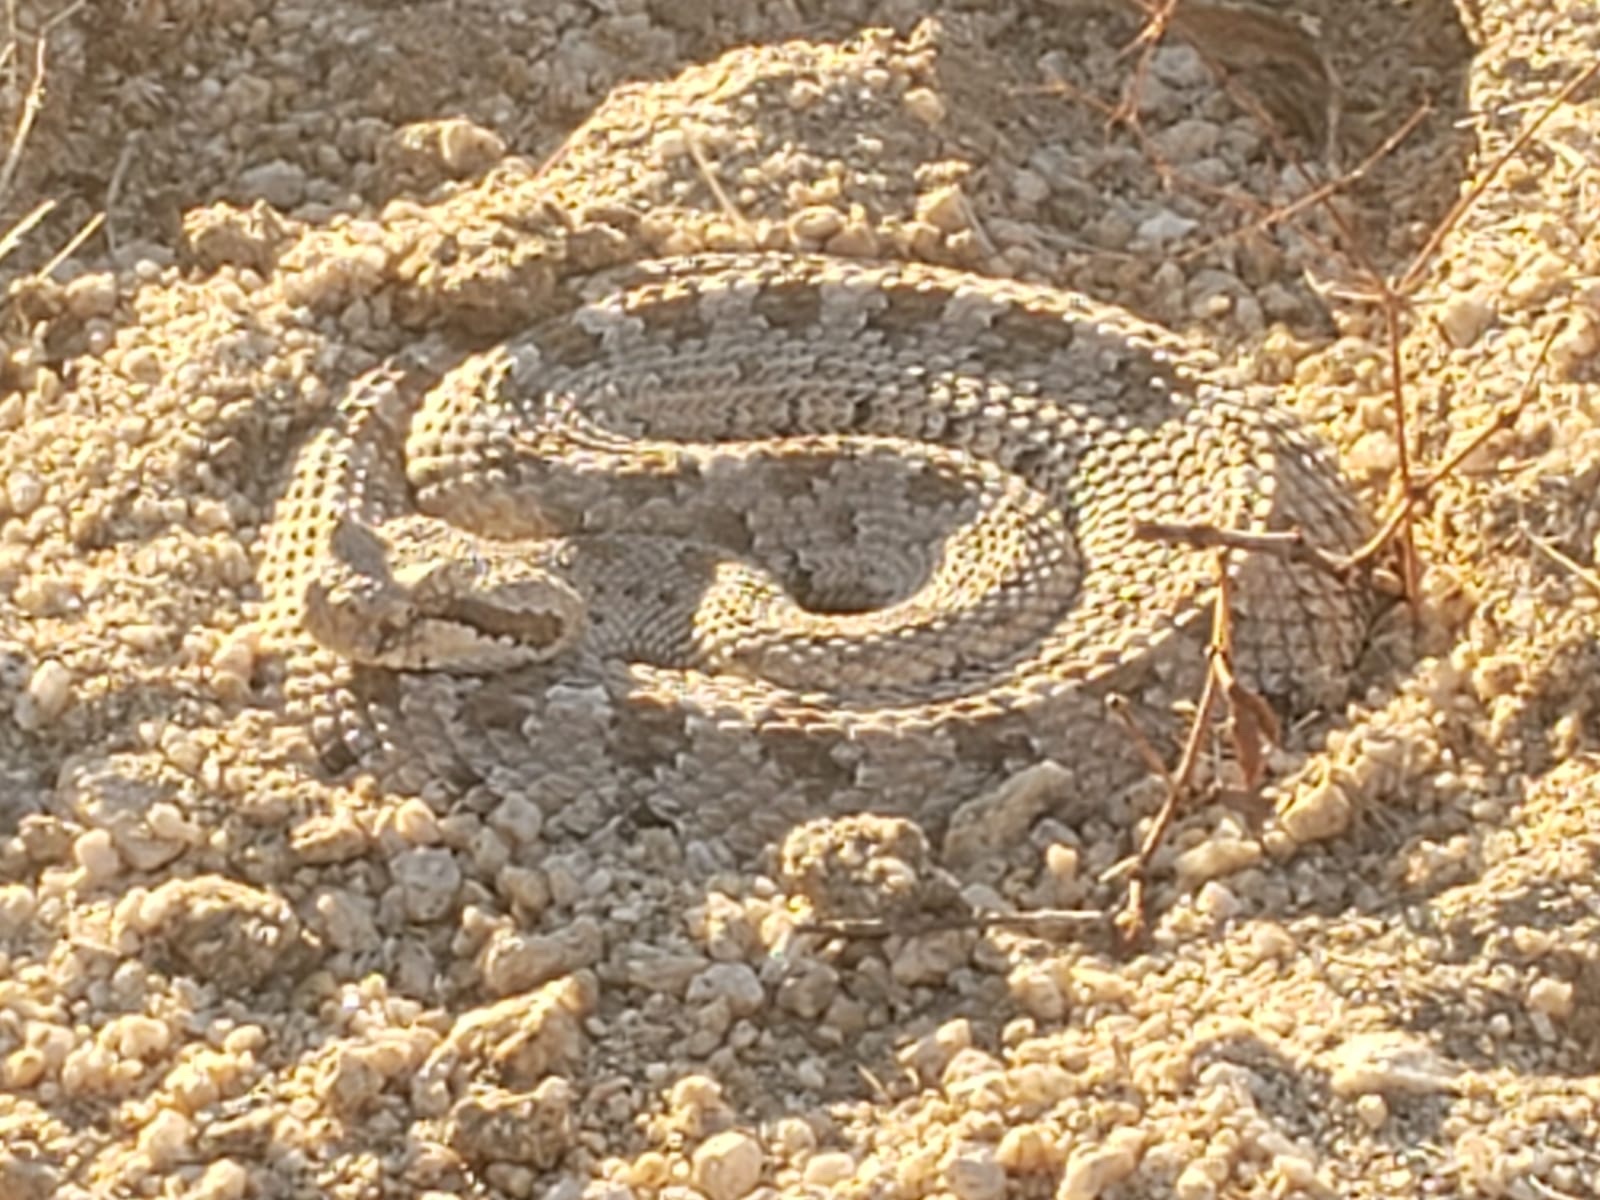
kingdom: Animalia
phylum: Chordata
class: Squamata
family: Viperidae
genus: Crotalus
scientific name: Crotalus cerastes
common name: Sidewinder
